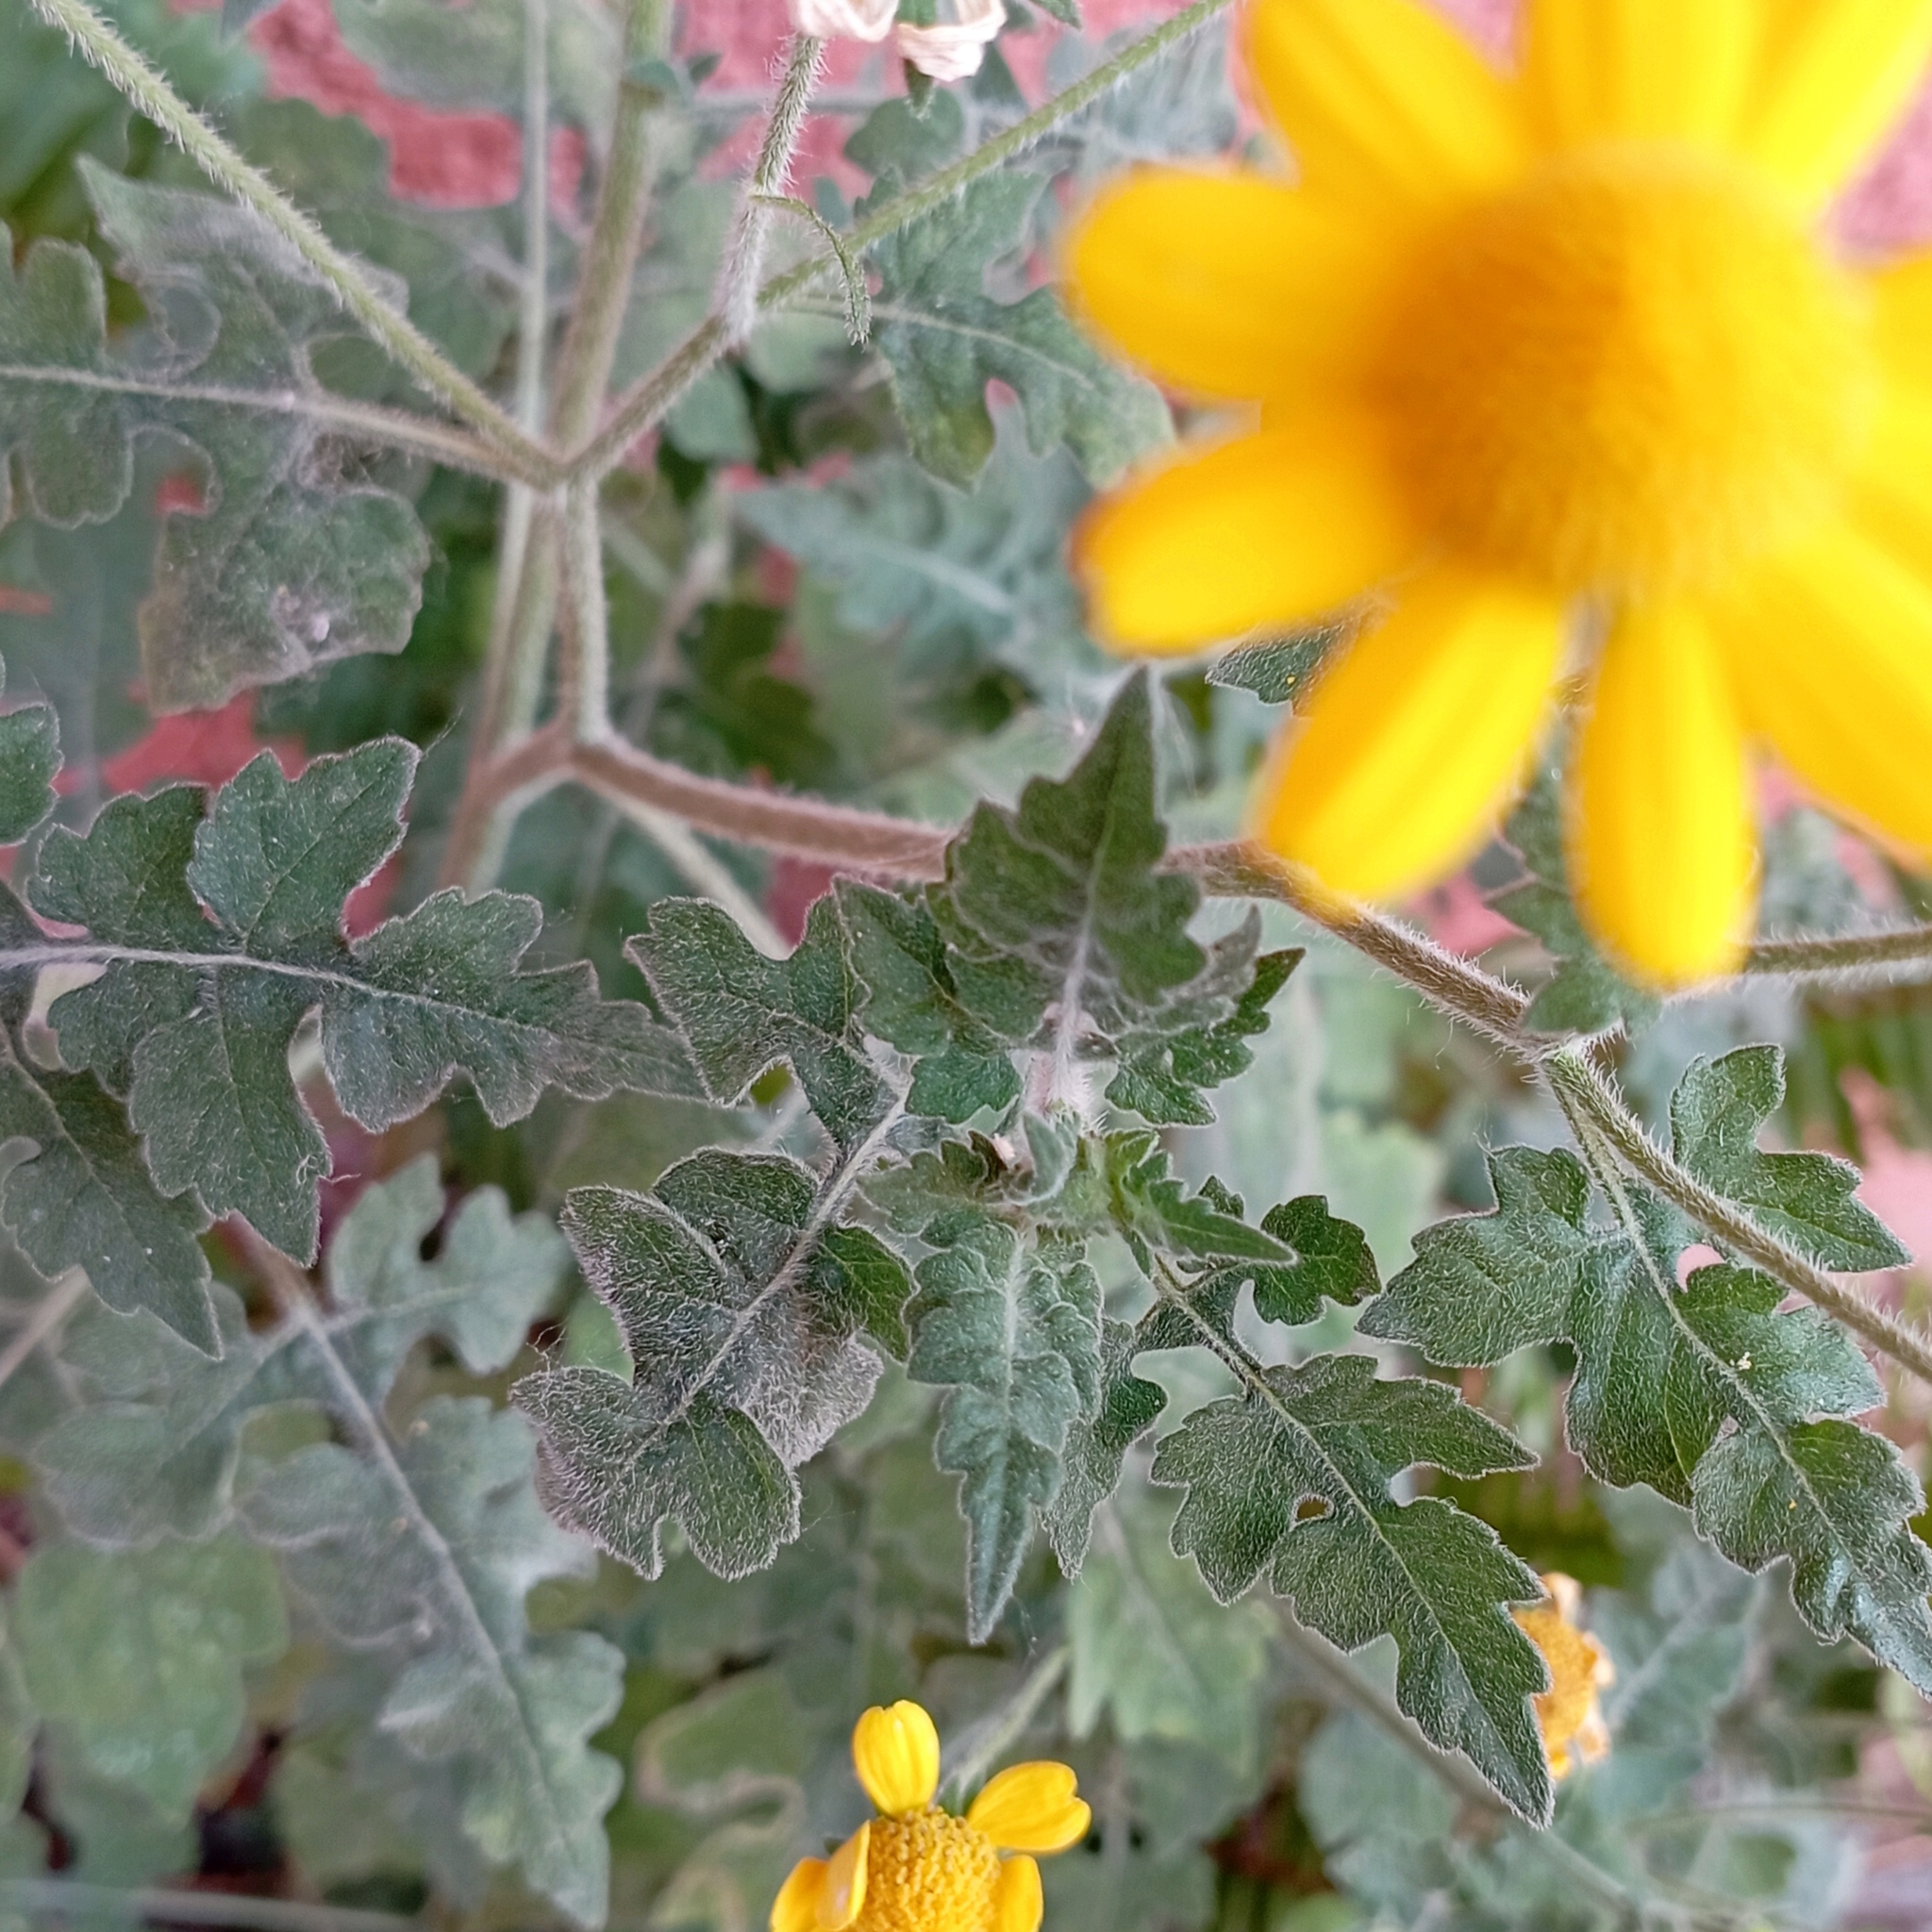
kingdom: Plantae
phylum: Tracheophyta
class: Magnoliopsida
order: Asterales
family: Asteraceae
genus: Zaluzania
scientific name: Zaluzania triloba
